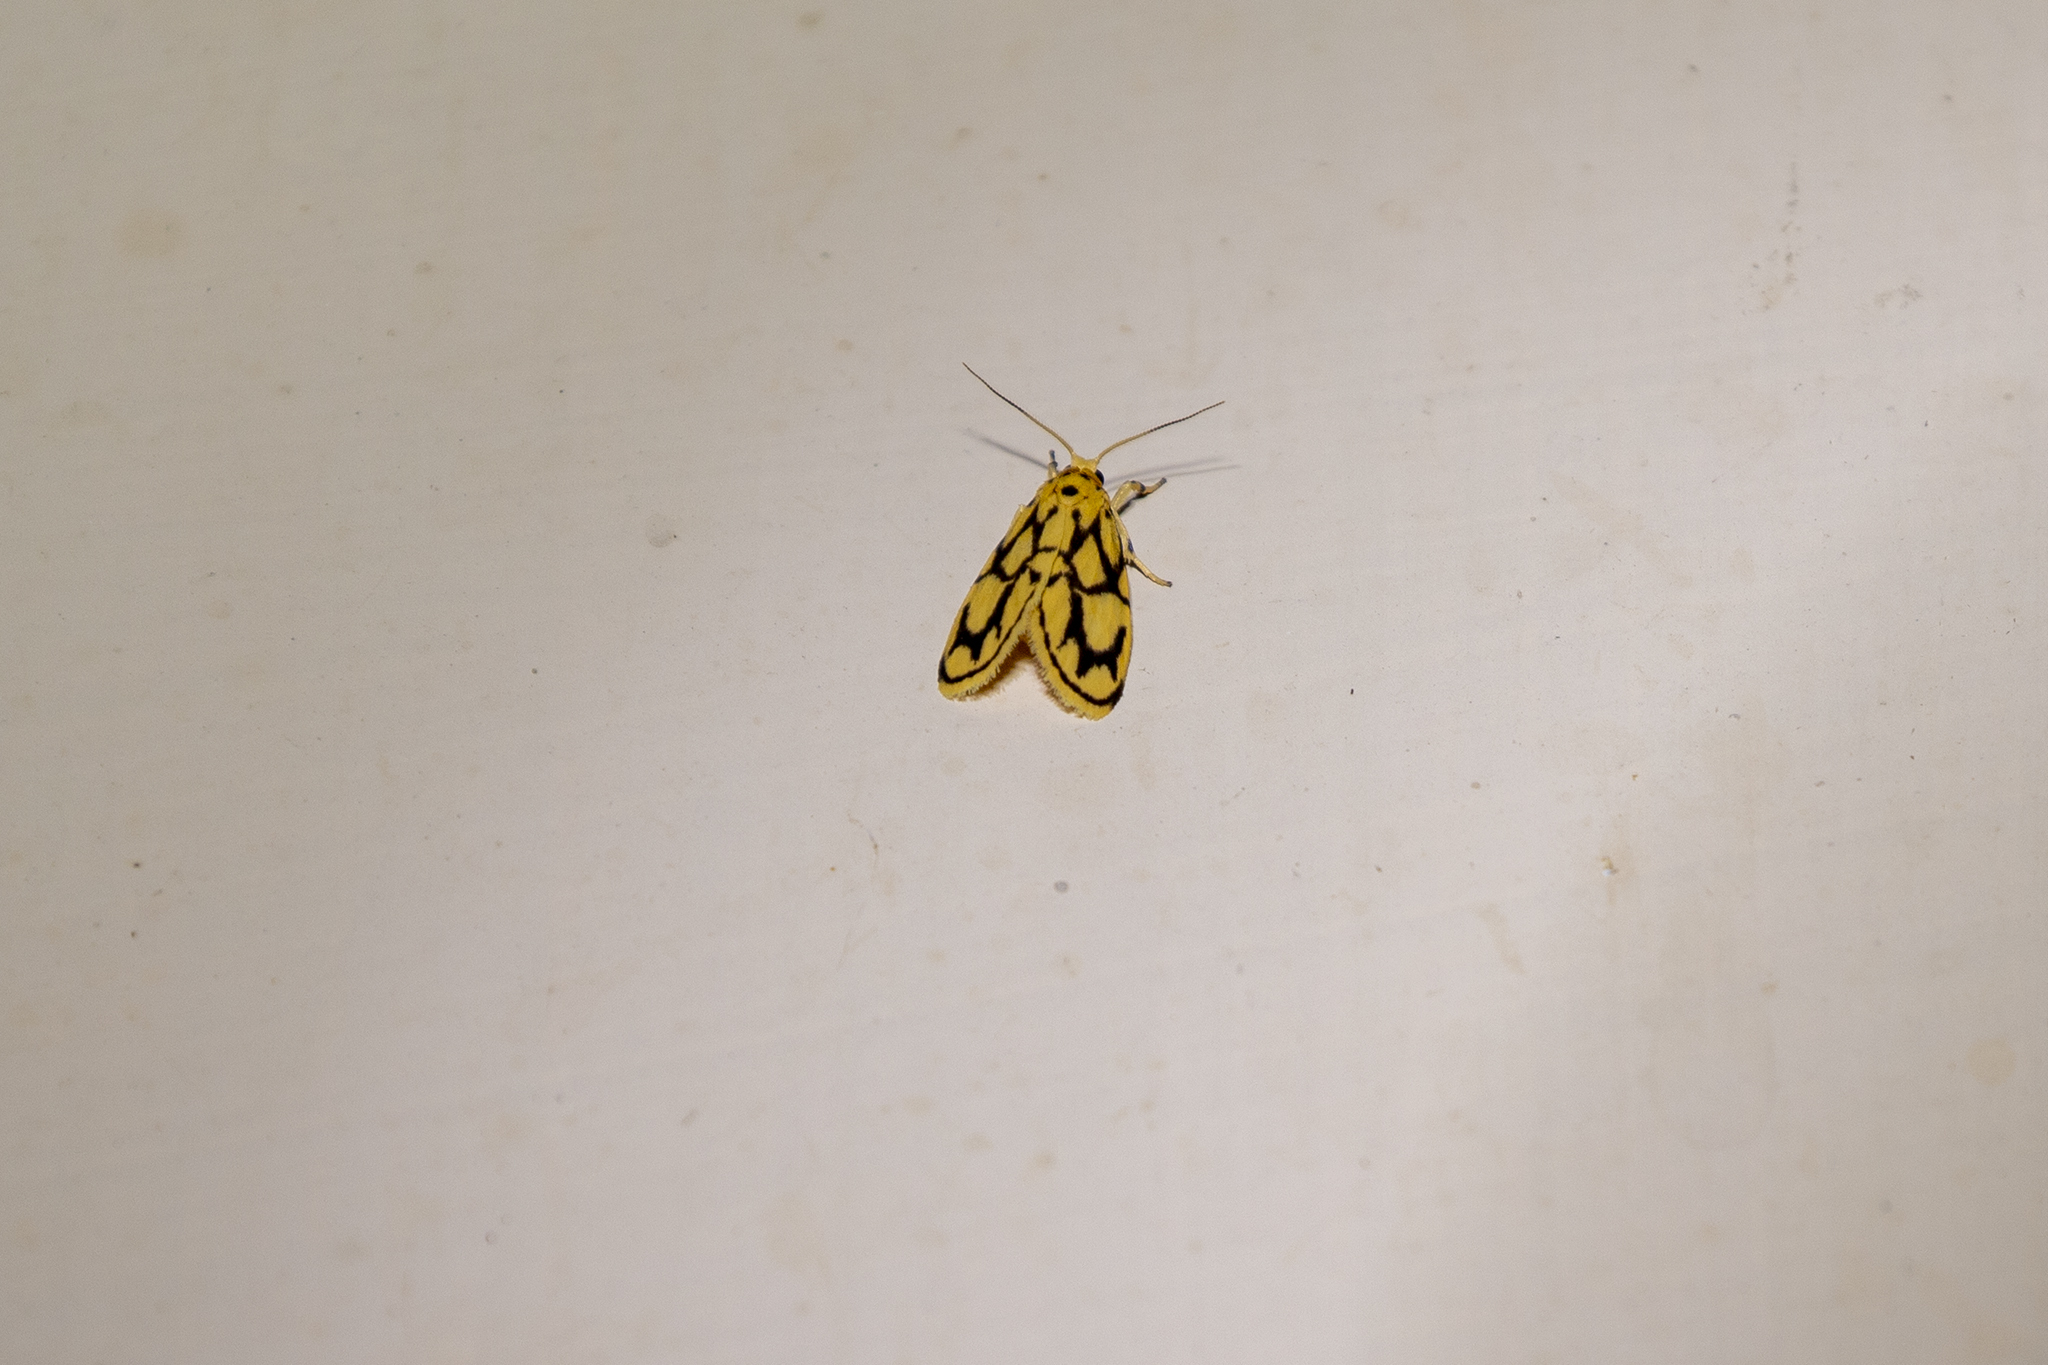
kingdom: Animalia
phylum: Arthropoda
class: Insecta
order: Lepidoptera
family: Erebidae
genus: Miltochrista
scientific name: Miltochrista conjunctana
